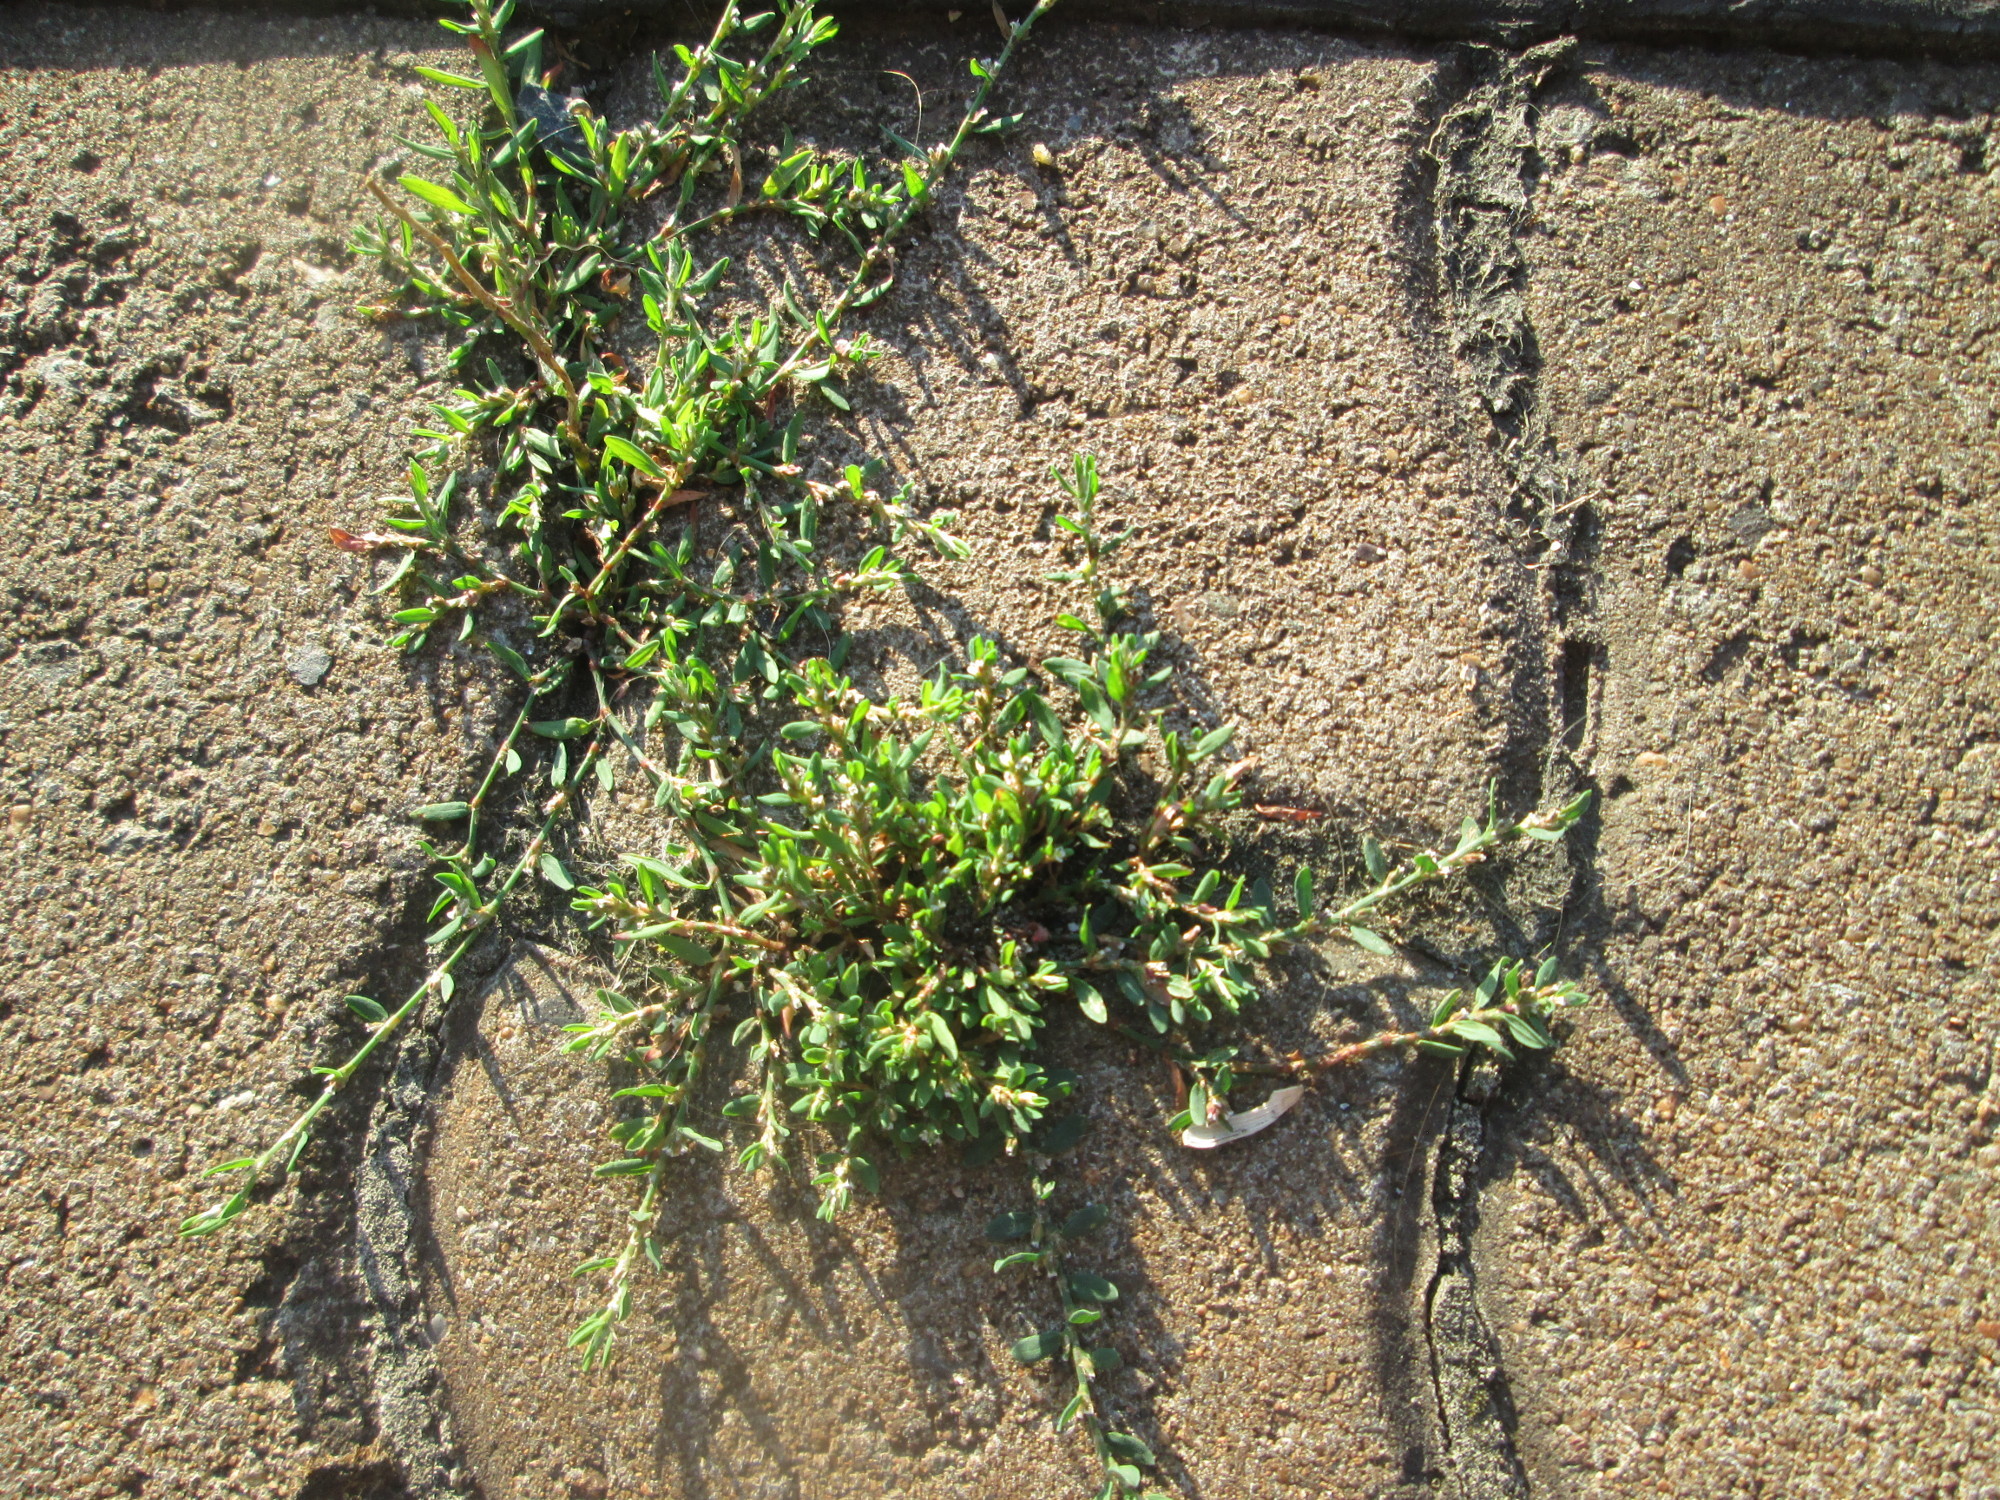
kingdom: Plantae
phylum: Tracheophyta
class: Magnoliopsida
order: Caryophyllales
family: Polygonaceae
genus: Polygonum
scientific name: Polygonum aviculare
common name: Prostrate knotweed
